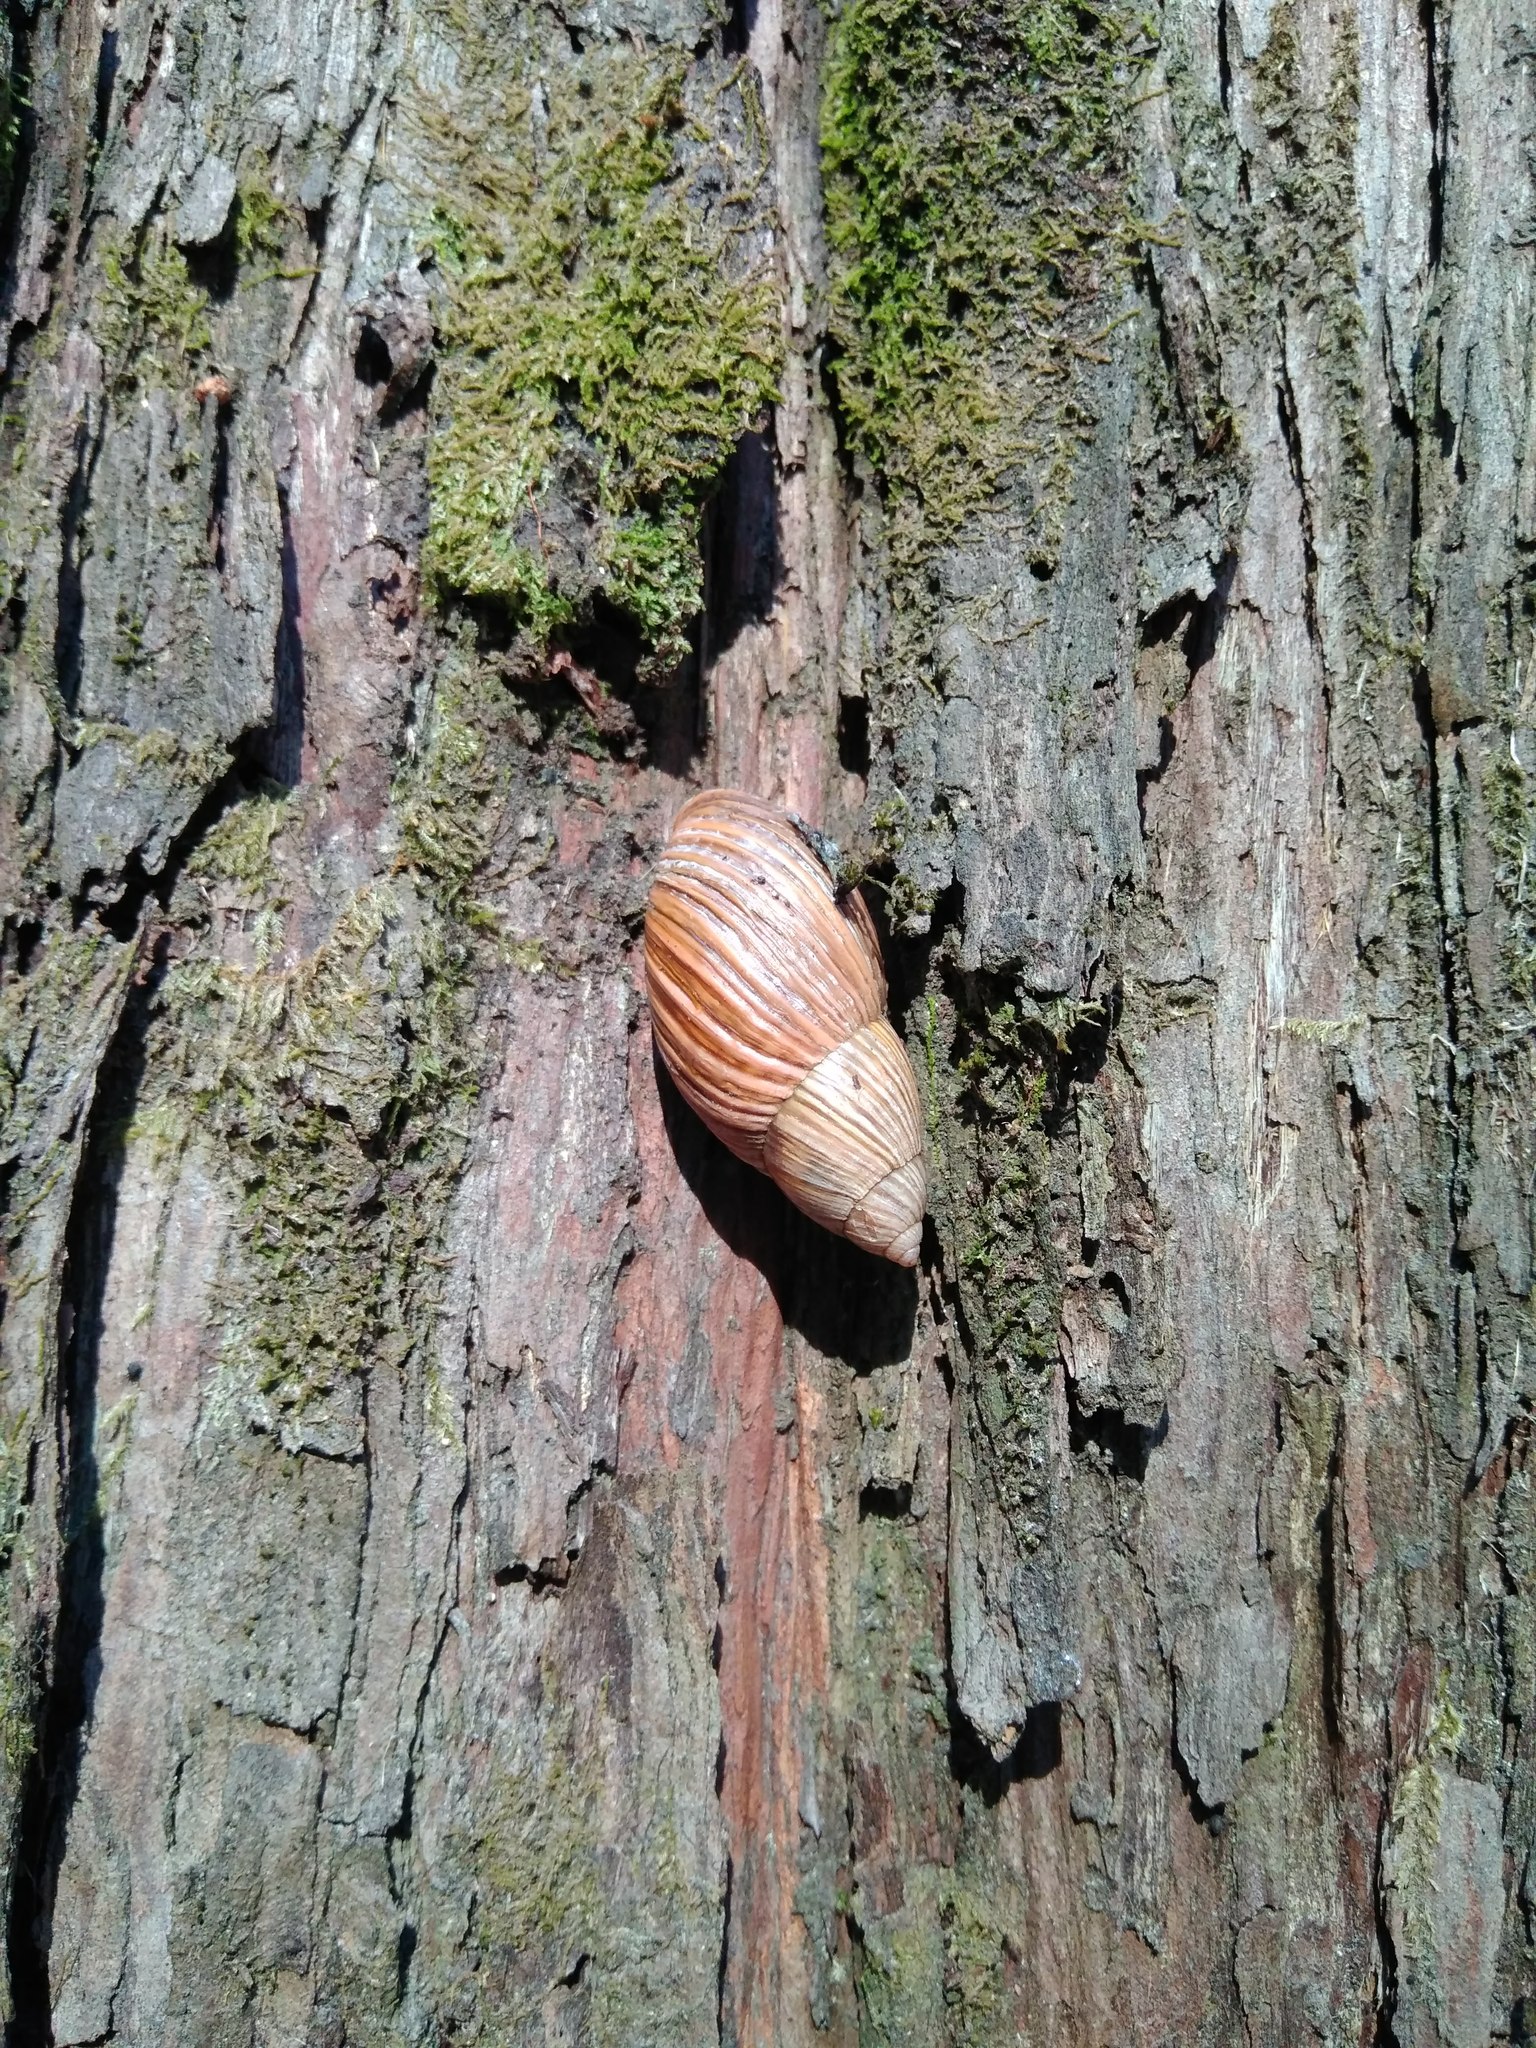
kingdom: Animalia
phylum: Mollusca
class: Gastropoda
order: Stylommatophora
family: Bothriembryontidae
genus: Plectostylus
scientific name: Plectostylus araucanus
